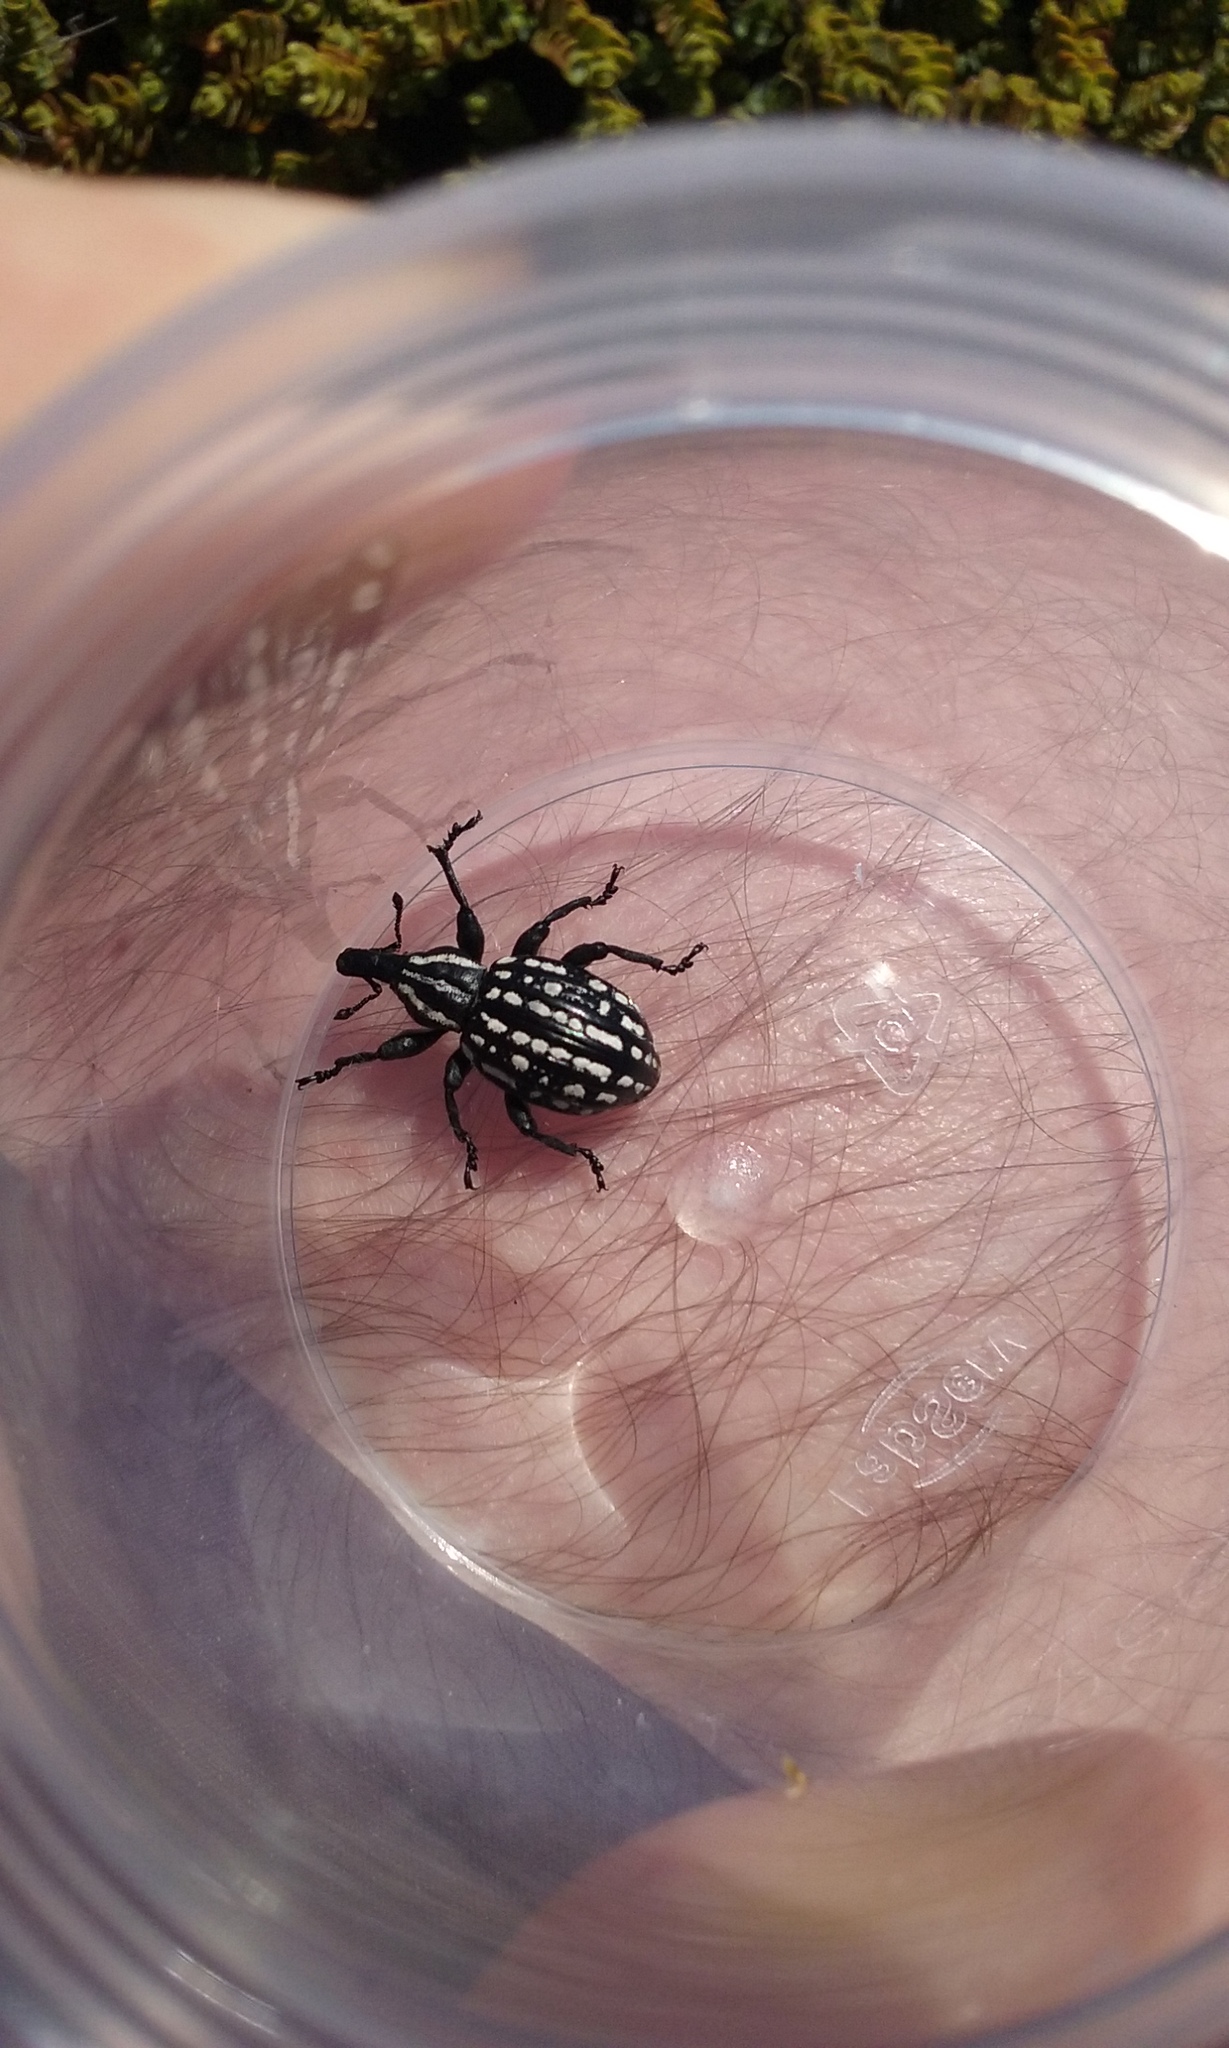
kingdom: Animalia
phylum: Arthropoda
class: Insecta
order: Coleoptera
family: Curculionidae
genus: Lyperobius
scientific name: Lyperobius hudsoni
